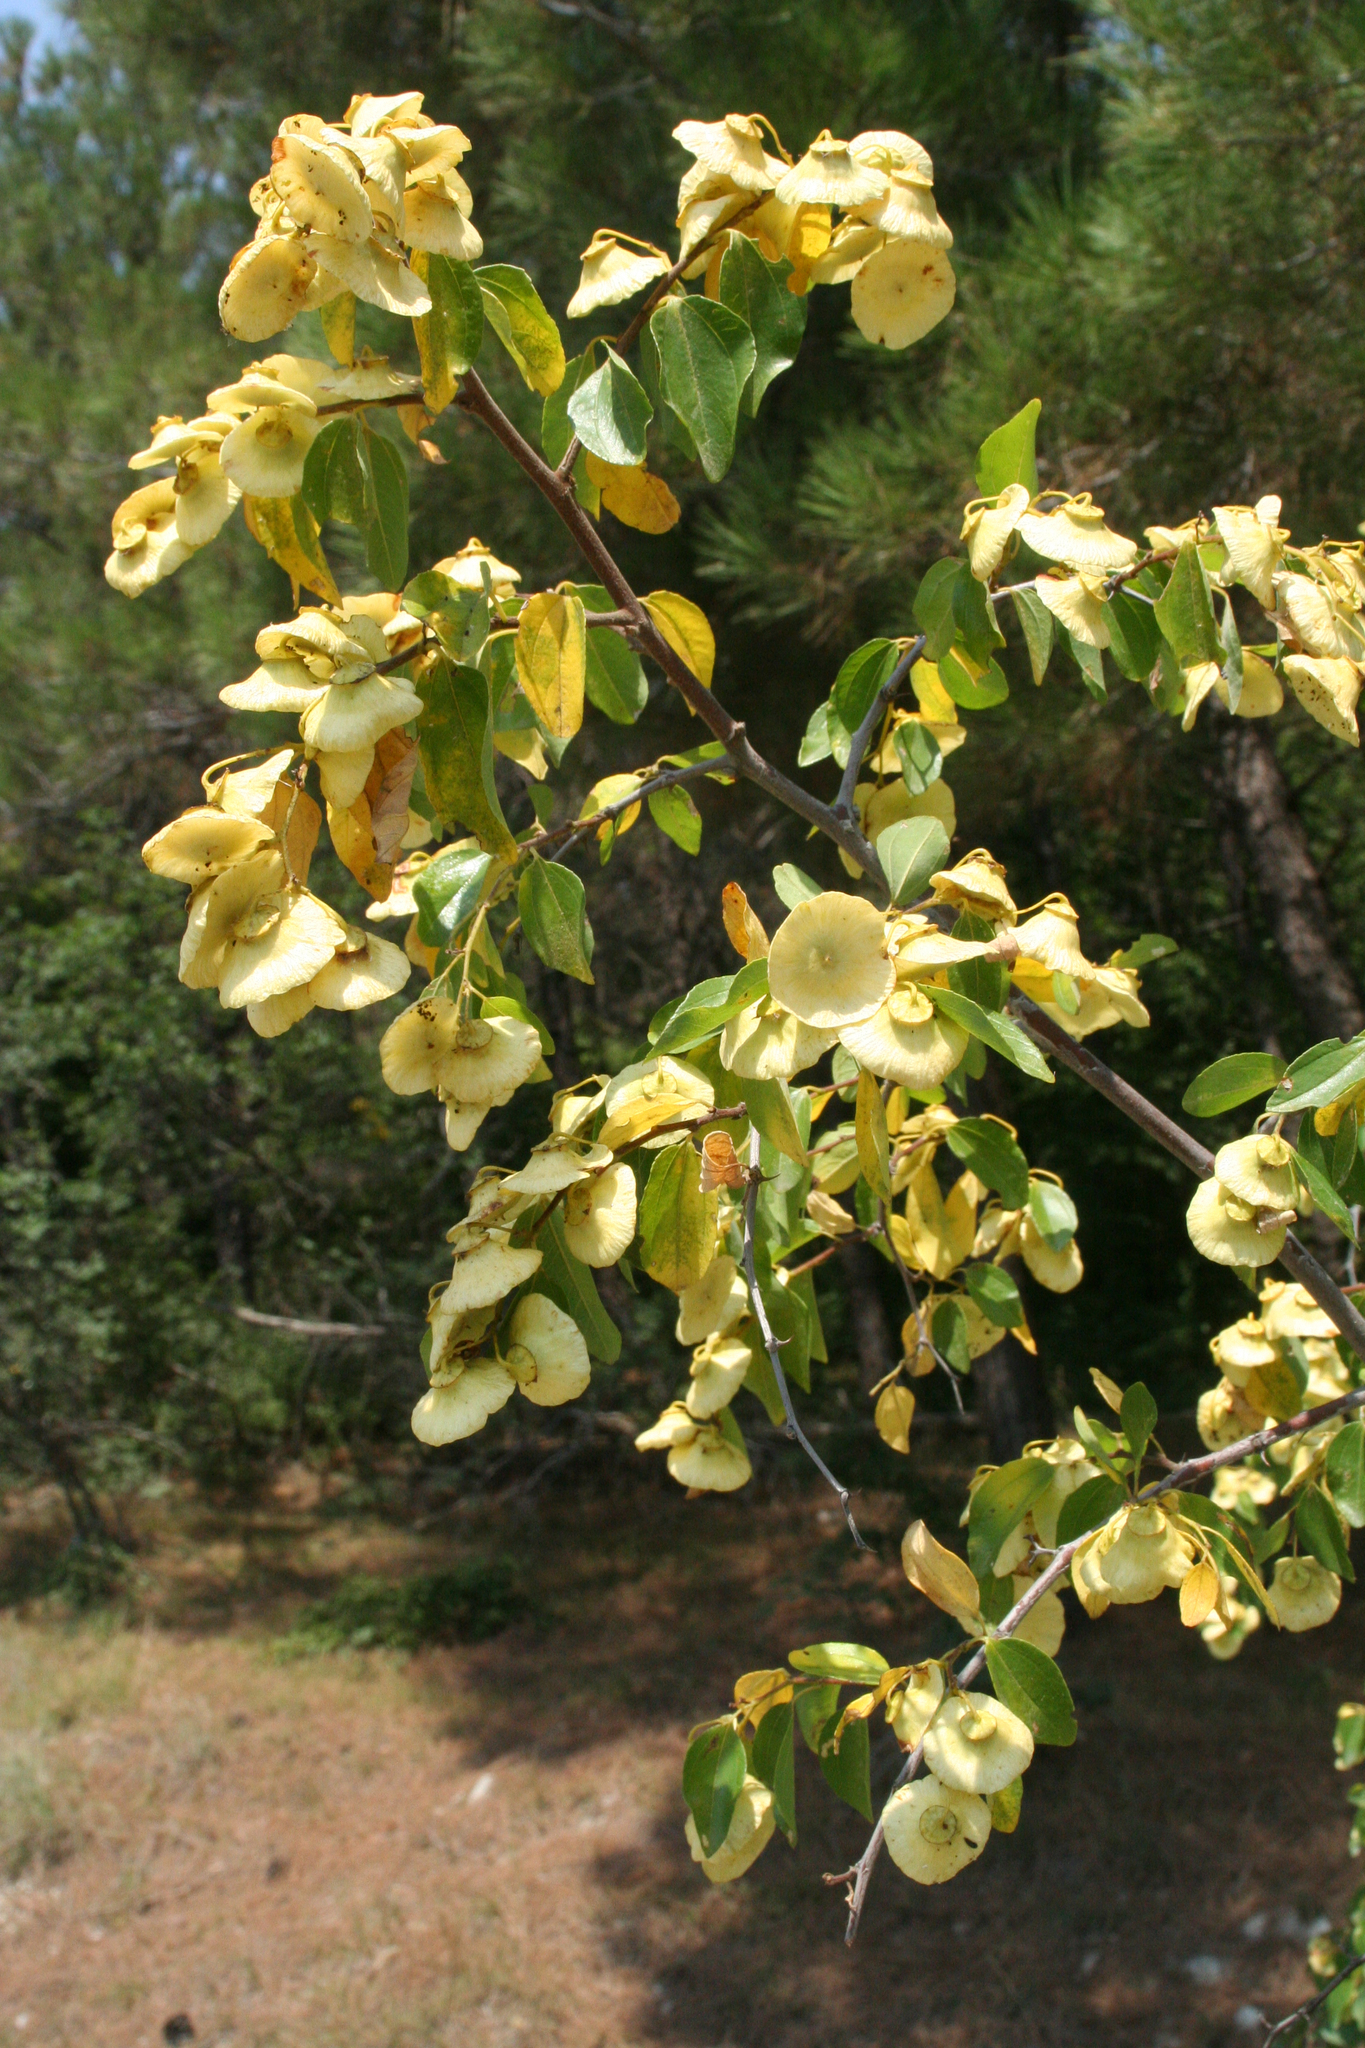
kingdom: Plantae
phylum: Tracheophyta
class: Magnoliopsida
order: Rosales
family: Rhamnaceae
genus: Paliurus
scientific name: Paliurus spina-christi
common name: Jeruselem thorn
